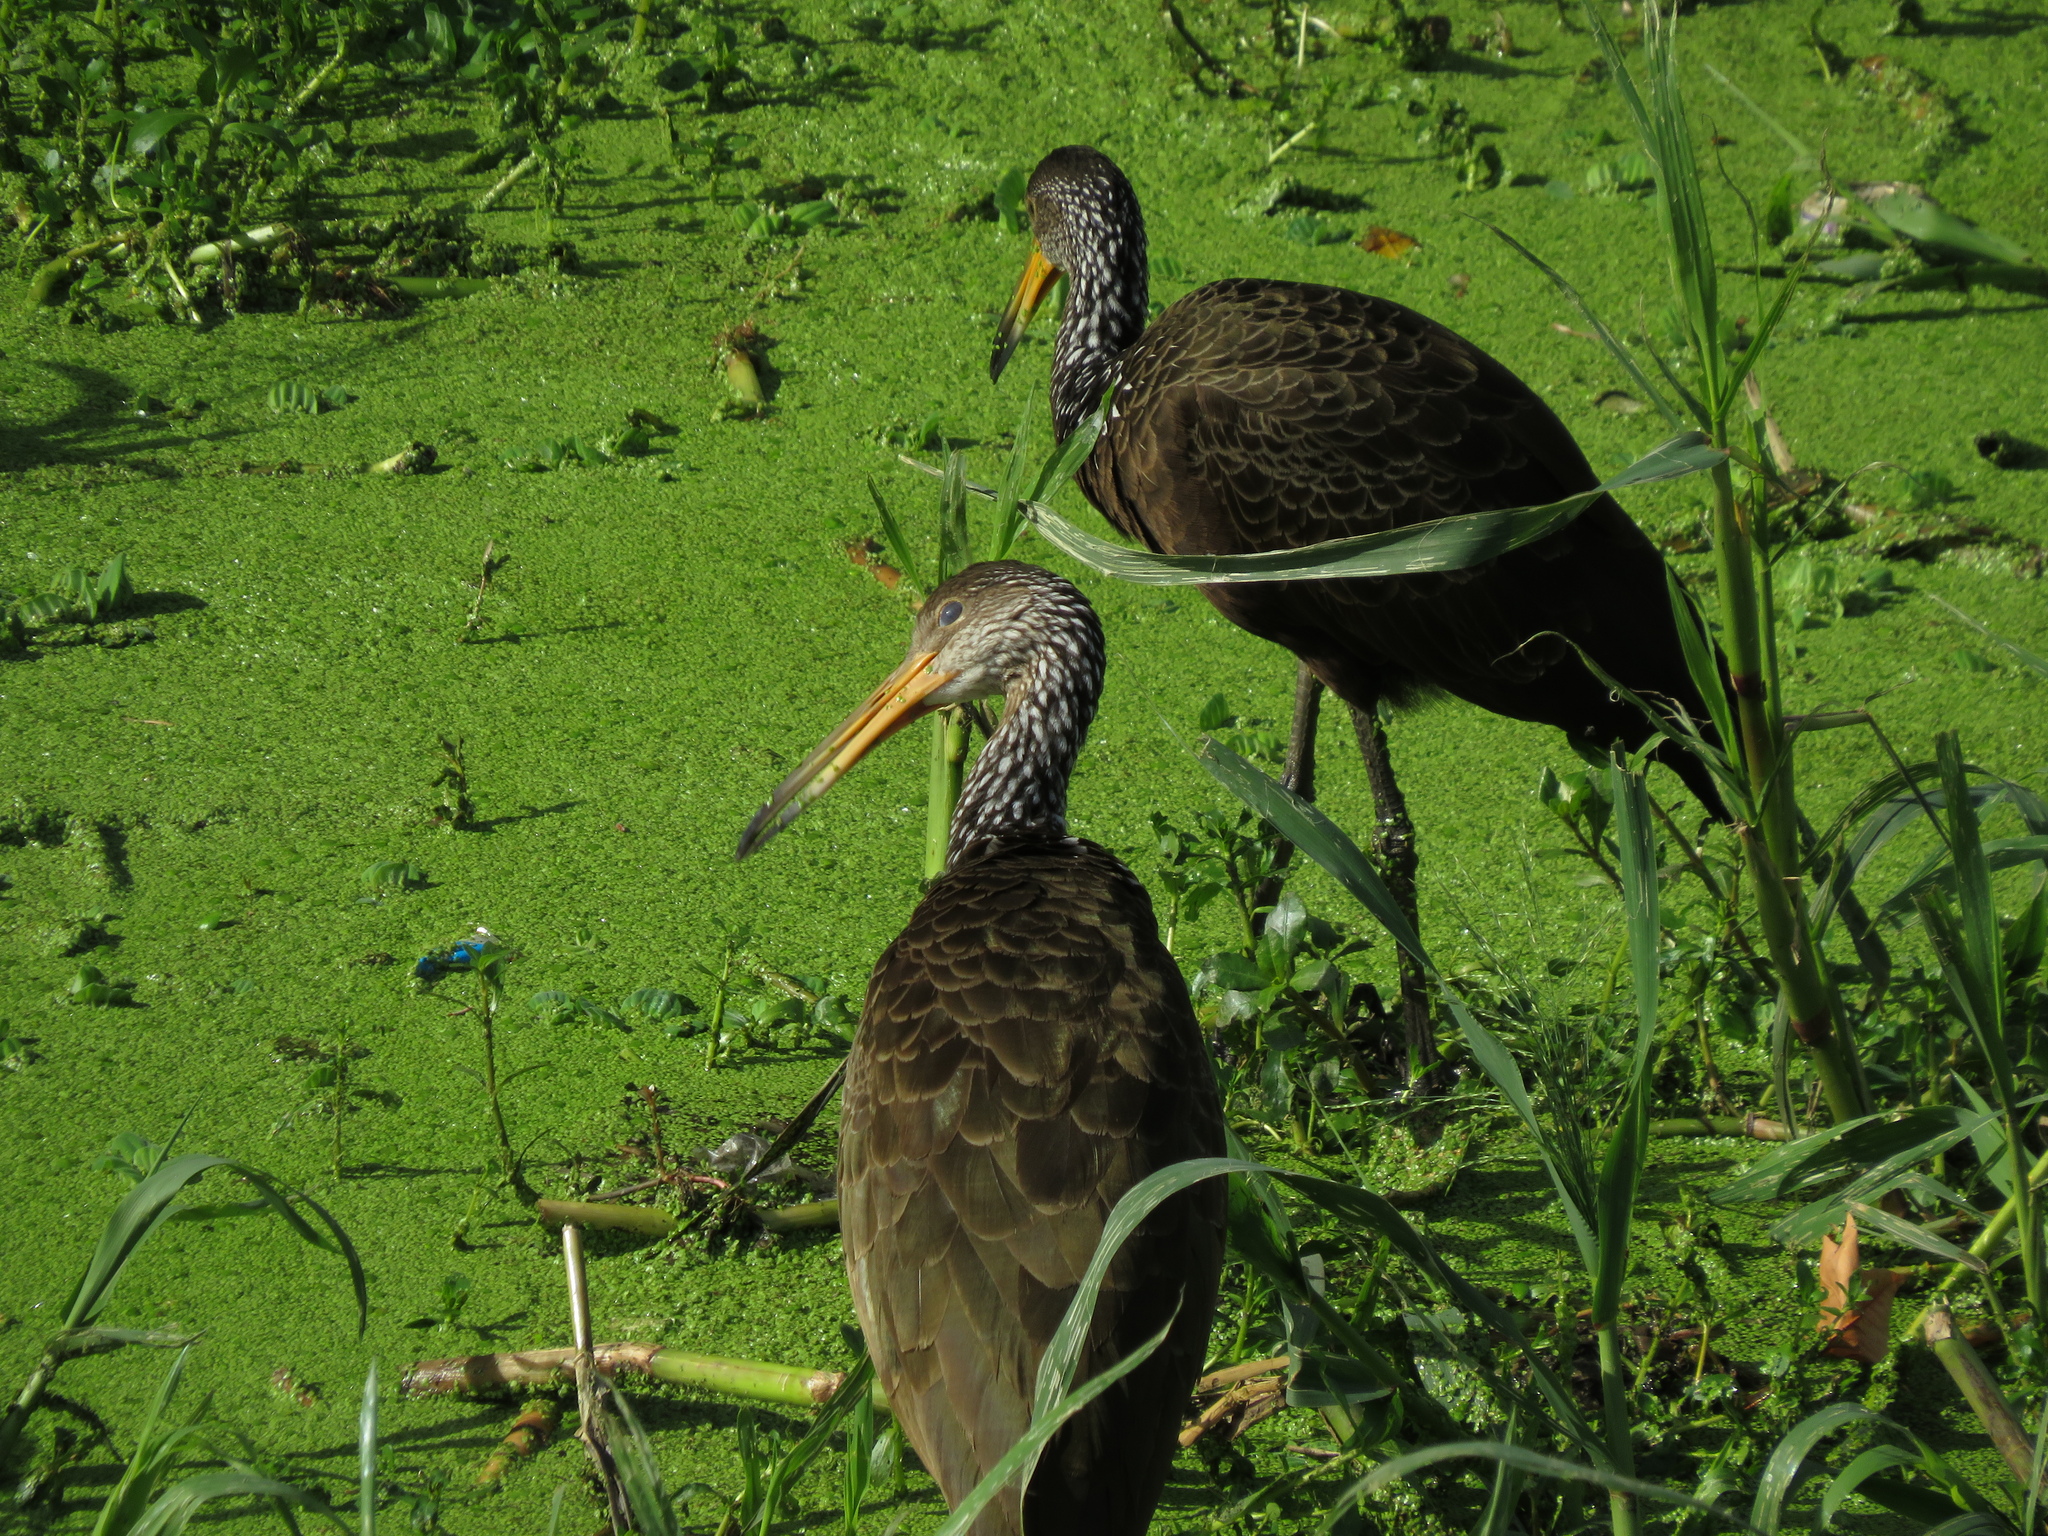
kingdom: Animalia
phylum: Chordata
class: Aves
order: Gruiformes
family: Aramidae
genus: Aramus
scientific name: Aramus guarauna
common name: Limpkin
